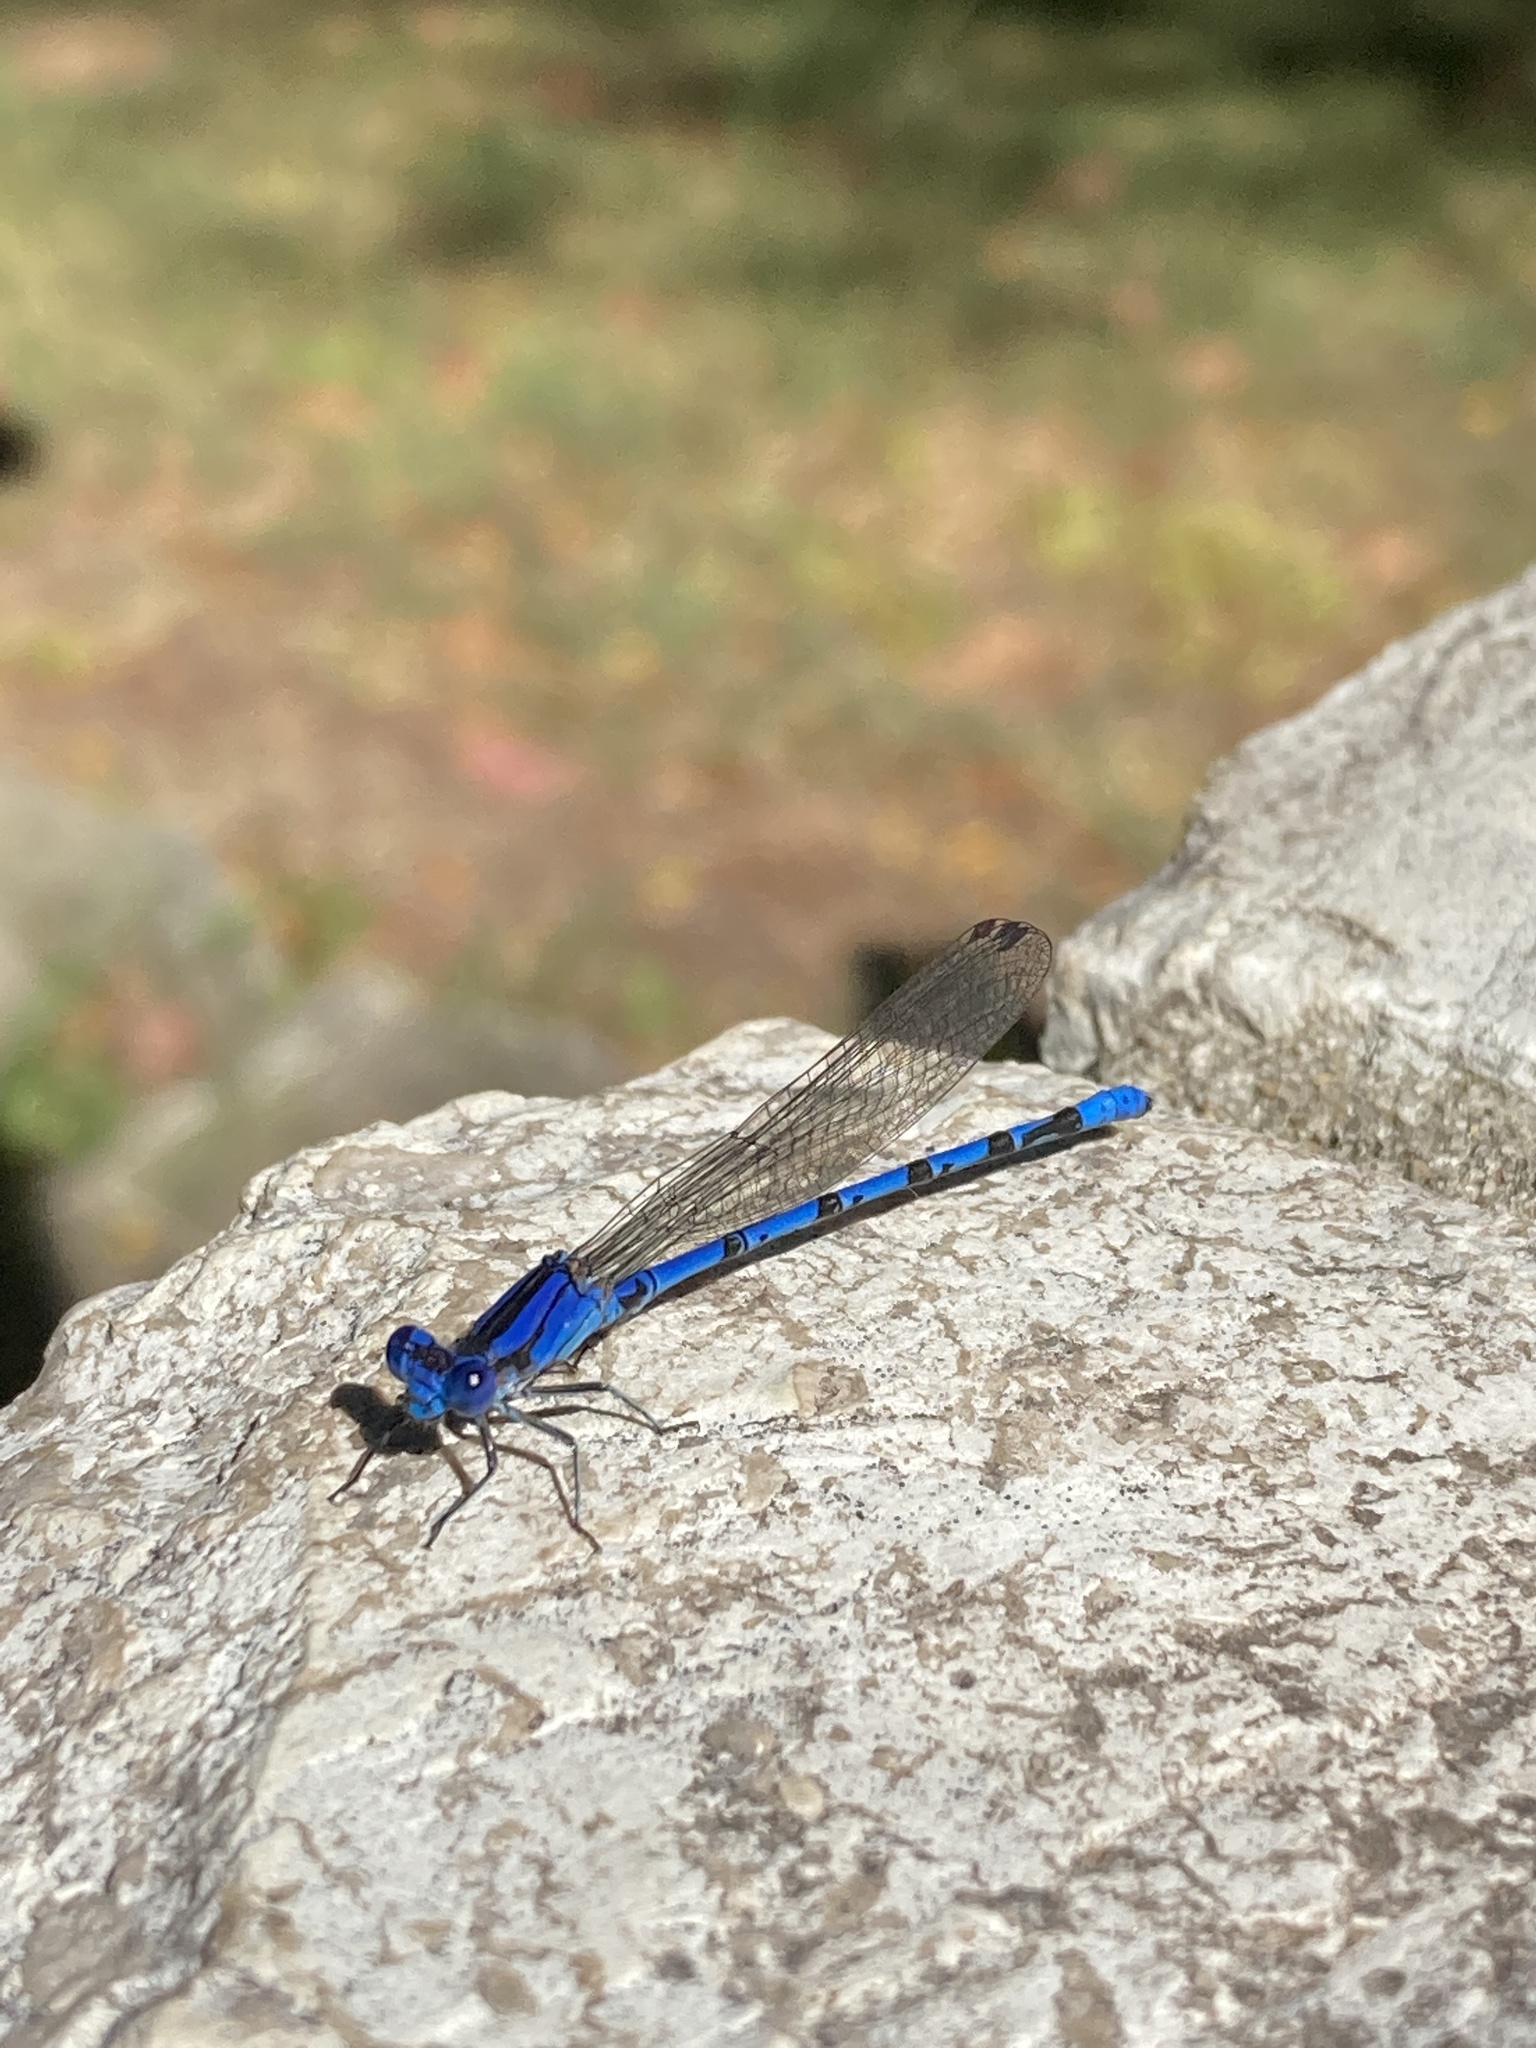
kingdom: Animalia
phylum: Arthropoda
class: Insecta
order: Odonata
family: Coenagrionidae
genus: Argia
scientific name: Argia funebris
